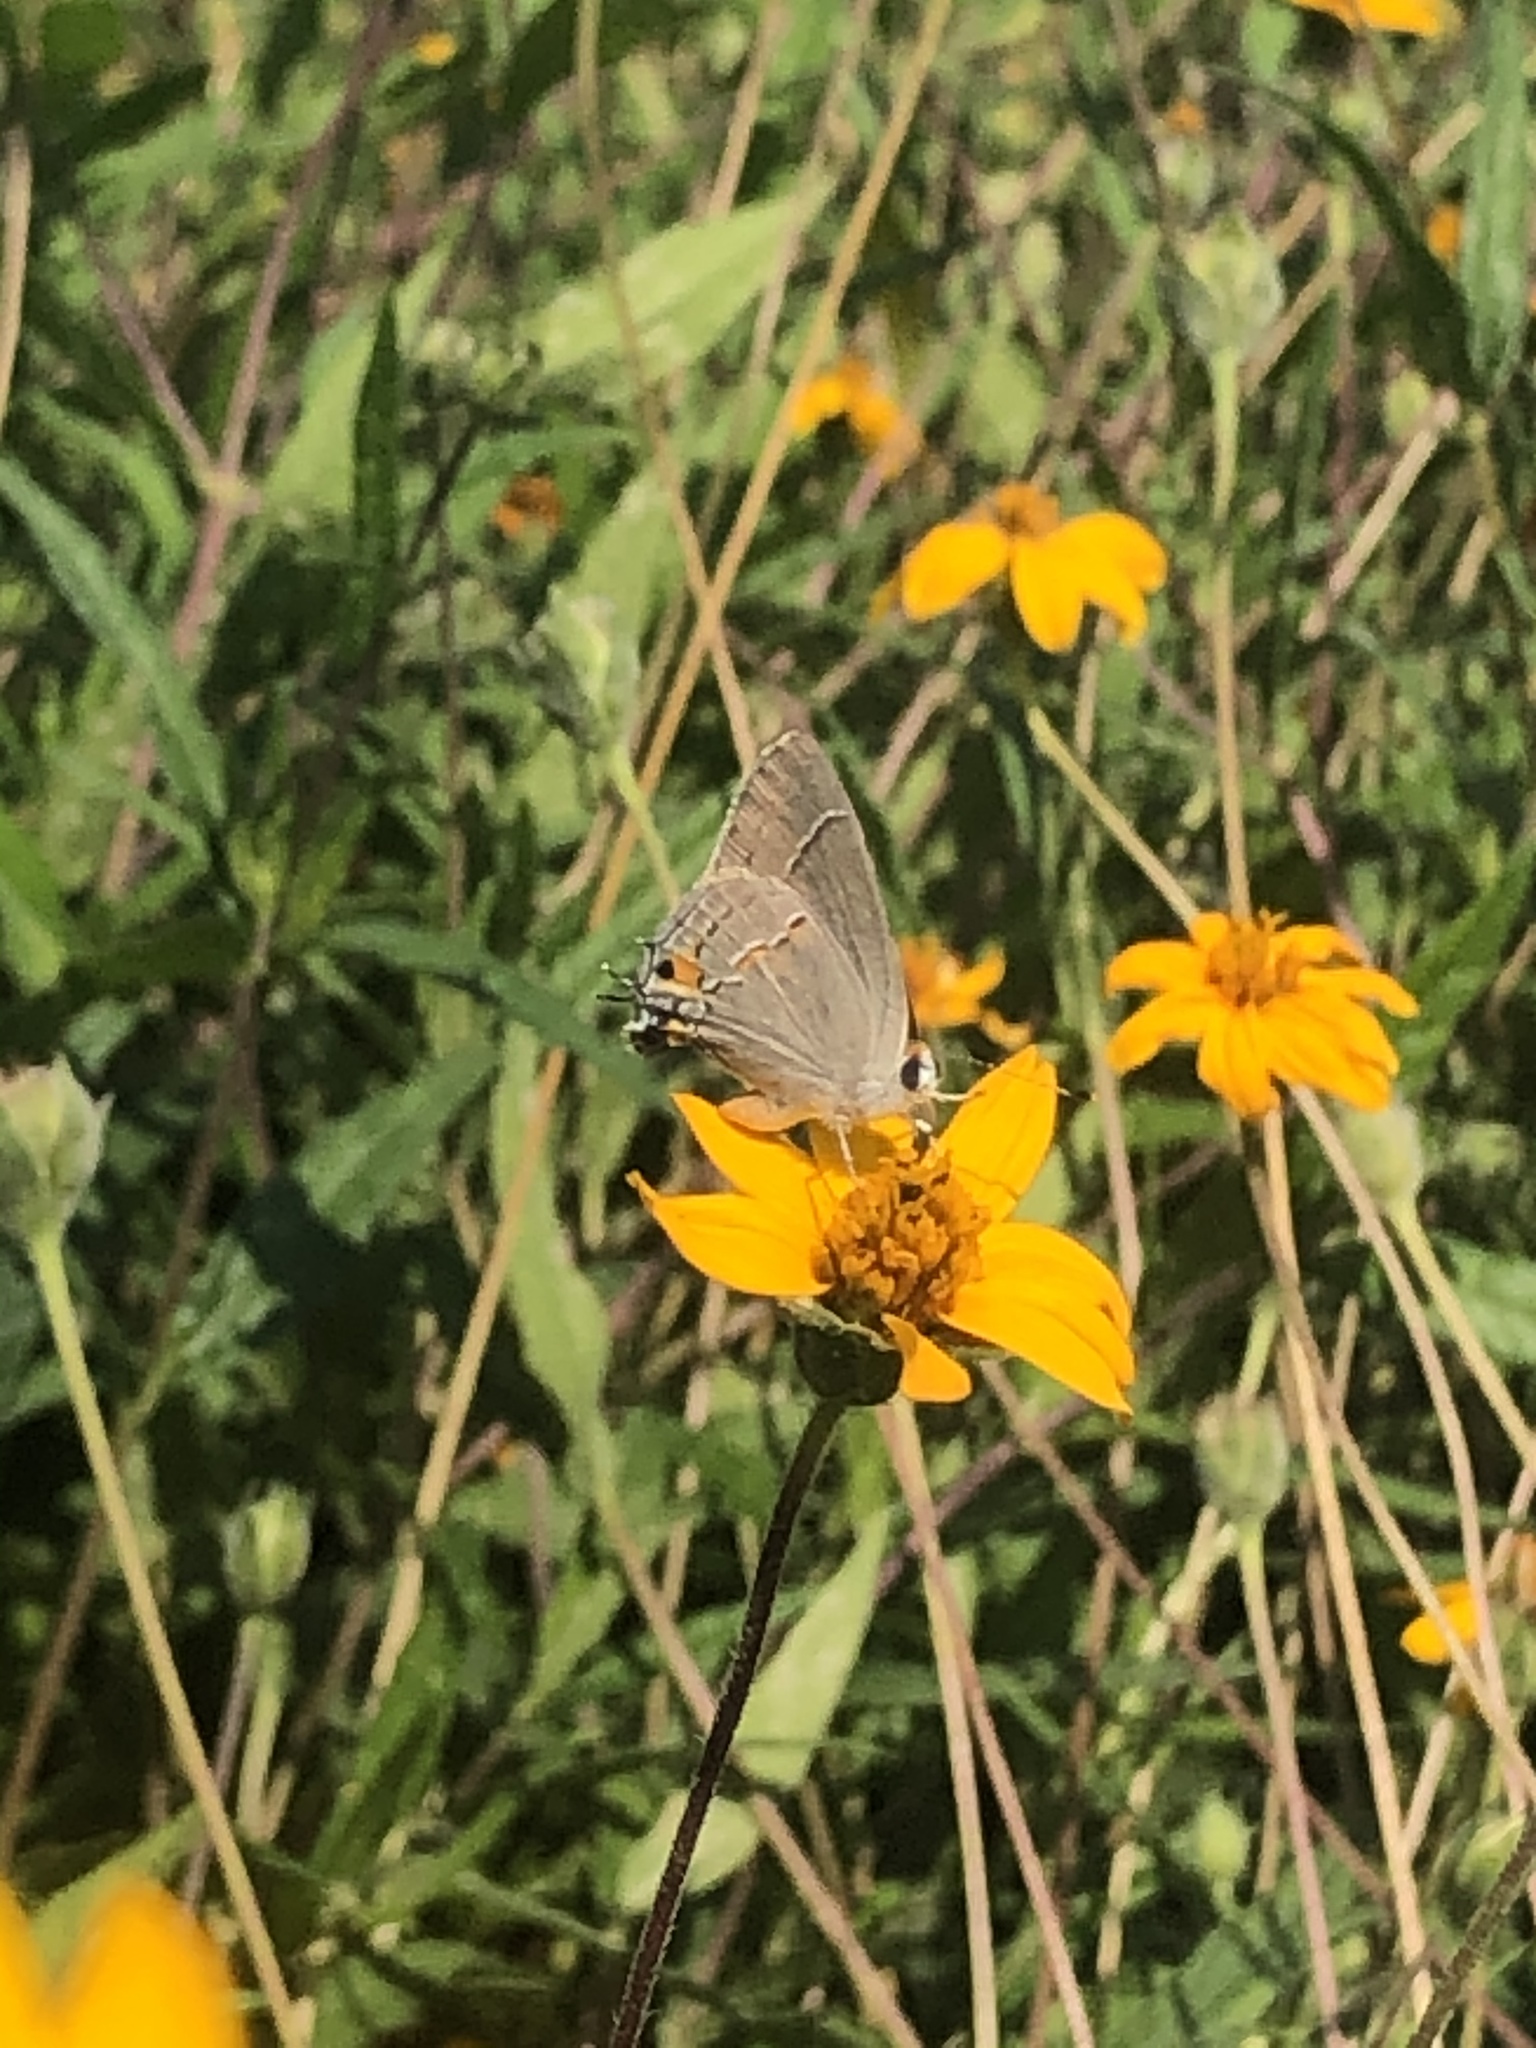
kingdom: Animalia
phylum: Arthropoda
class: Insecta
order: Lepidoptera
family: Lycaenidae
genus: Strymon
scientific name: Strymon melinus
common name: Gray hairstreak
